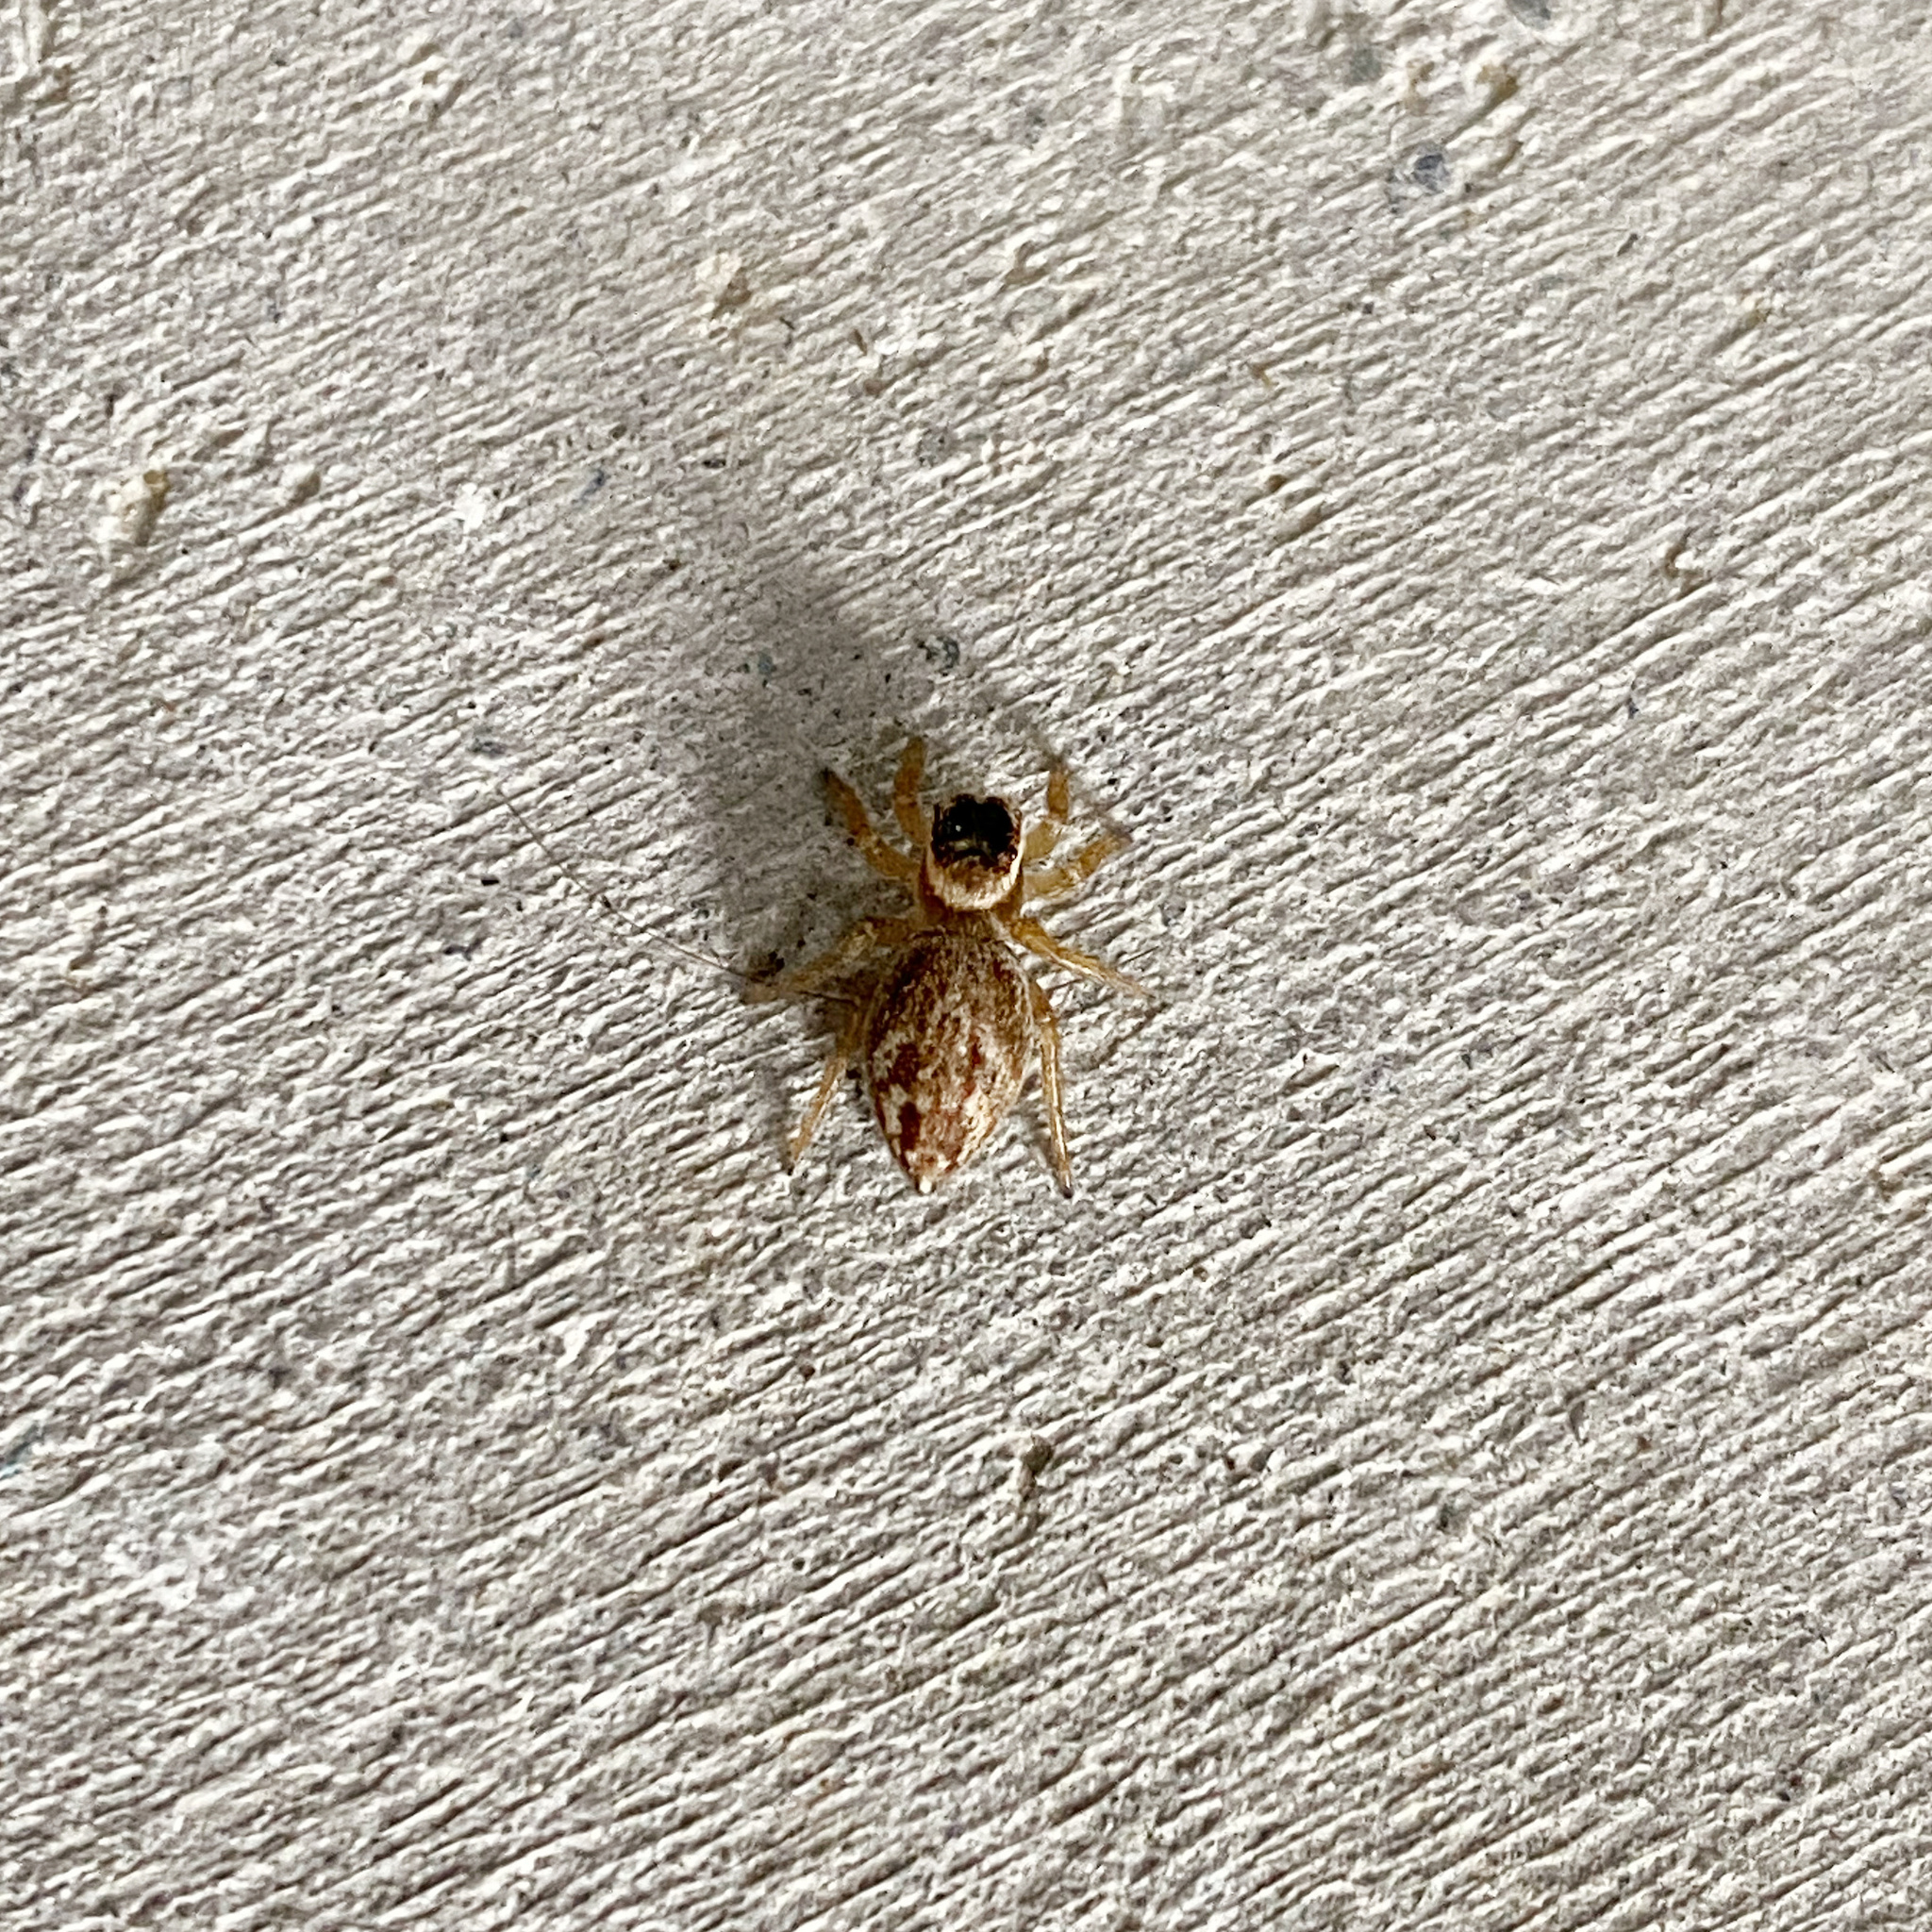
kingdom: Animalia
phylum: Arthropoda
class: Arachnida
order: Araneae
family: Salticidae
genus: Maratus
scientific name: Maratus griseus
